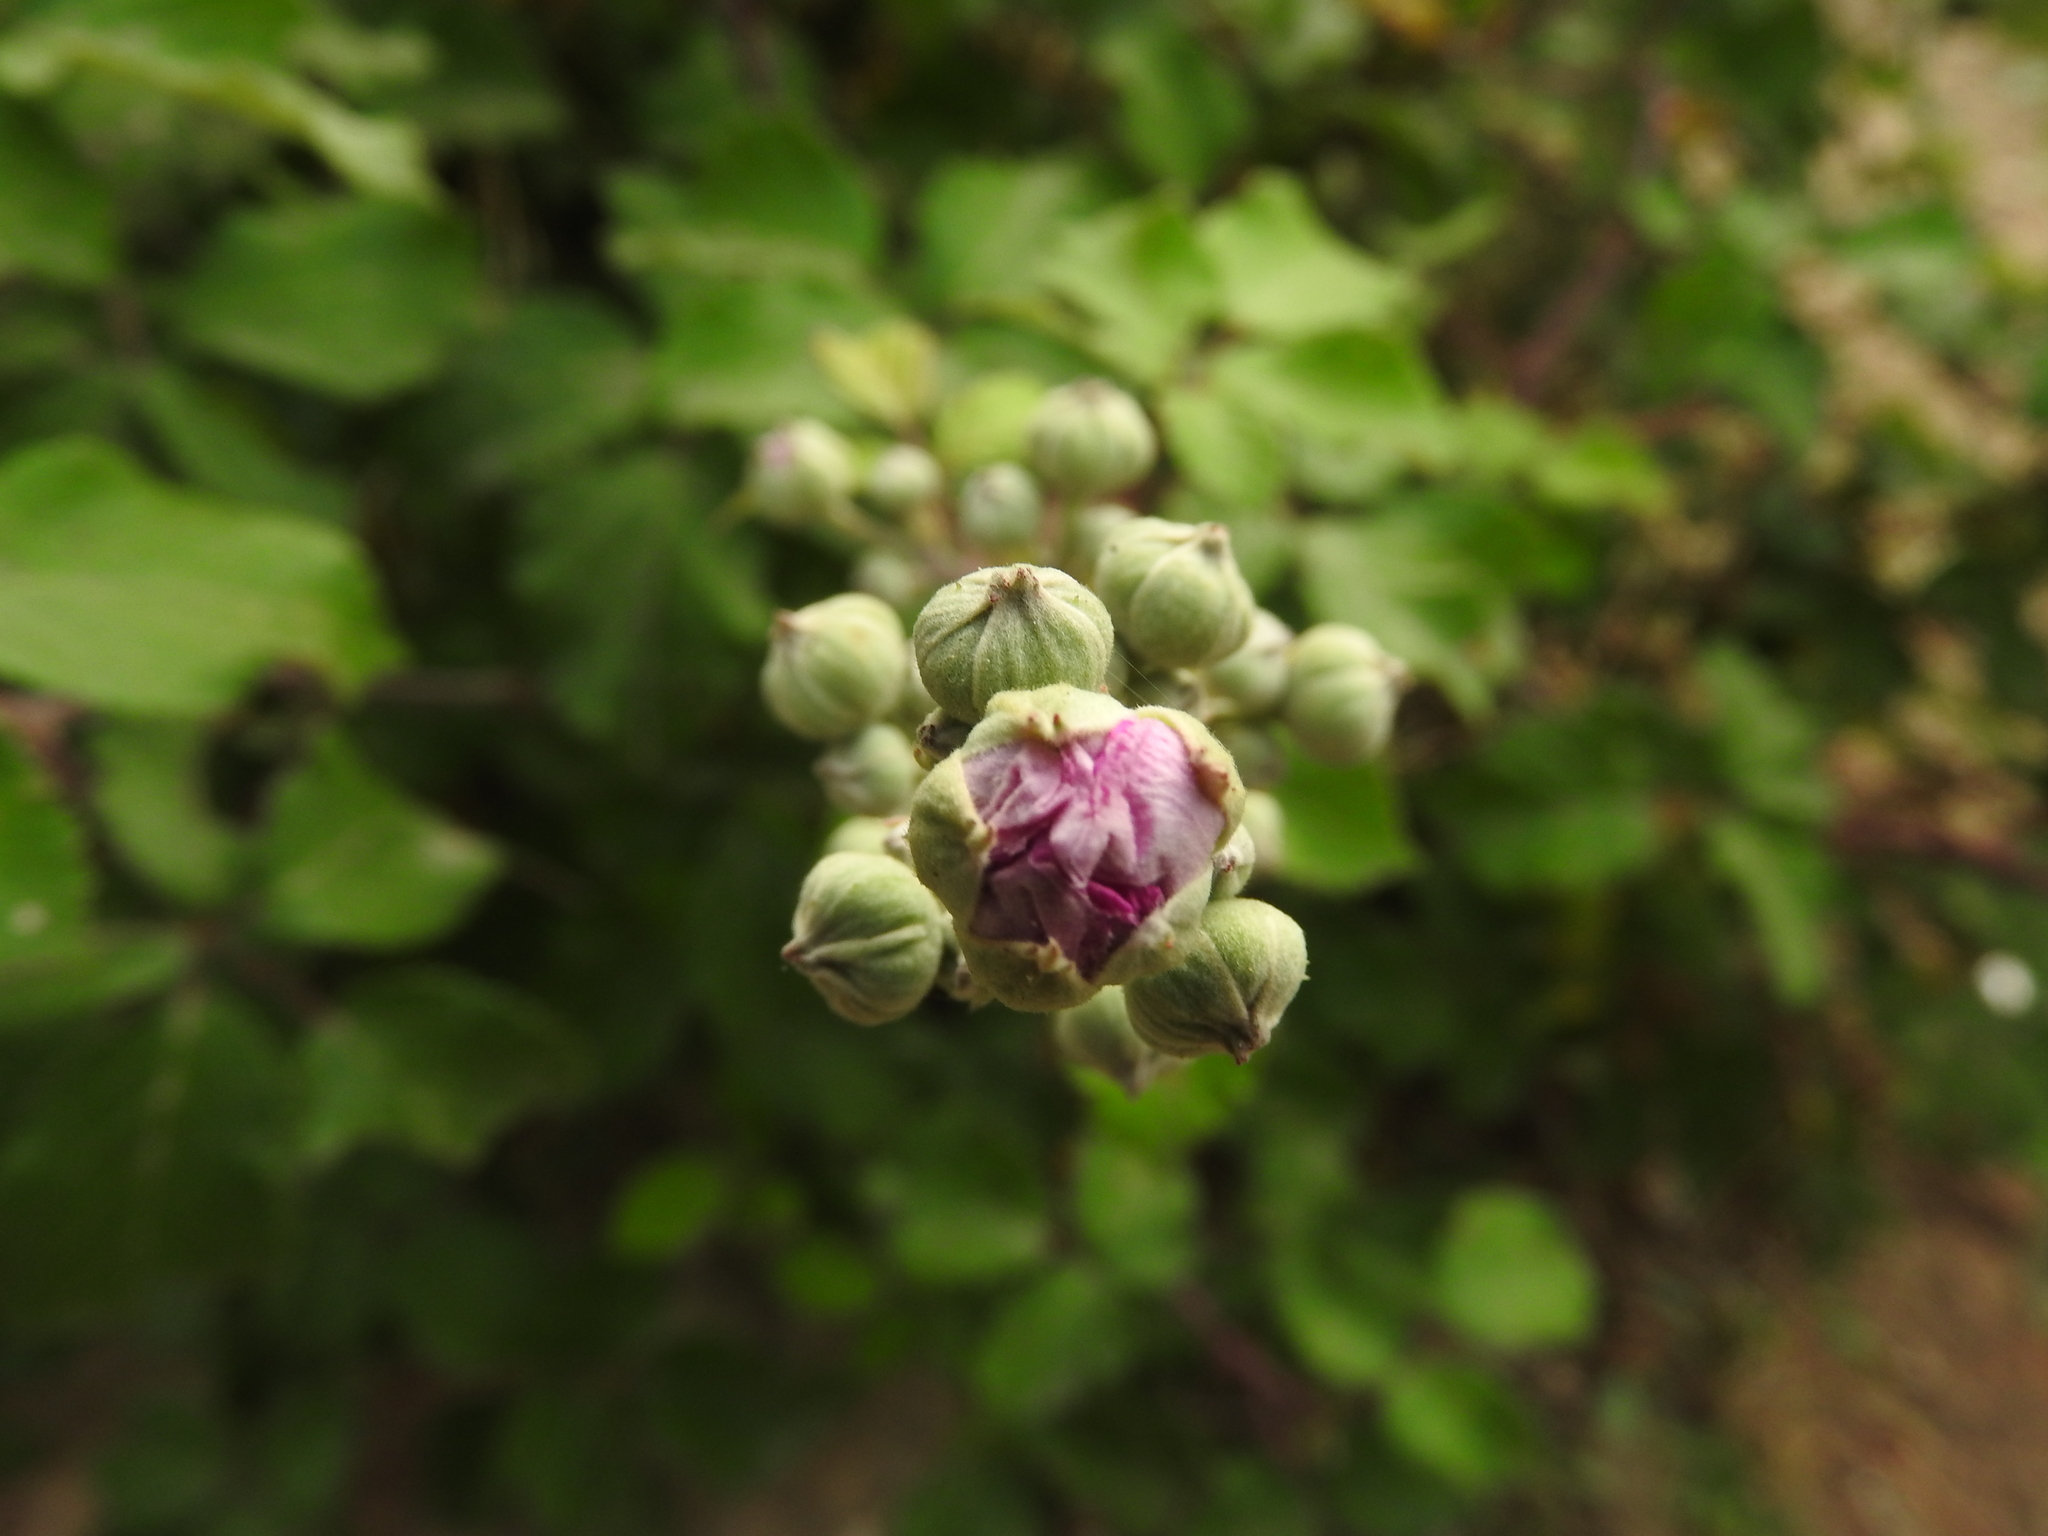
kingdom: Plantae
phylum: Tracheophyta
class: Magnoliopsida
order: Rosales
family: Rosaceae
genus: Rubus
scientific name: Rubus ulmifolius
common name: Elmleaf blackberry
